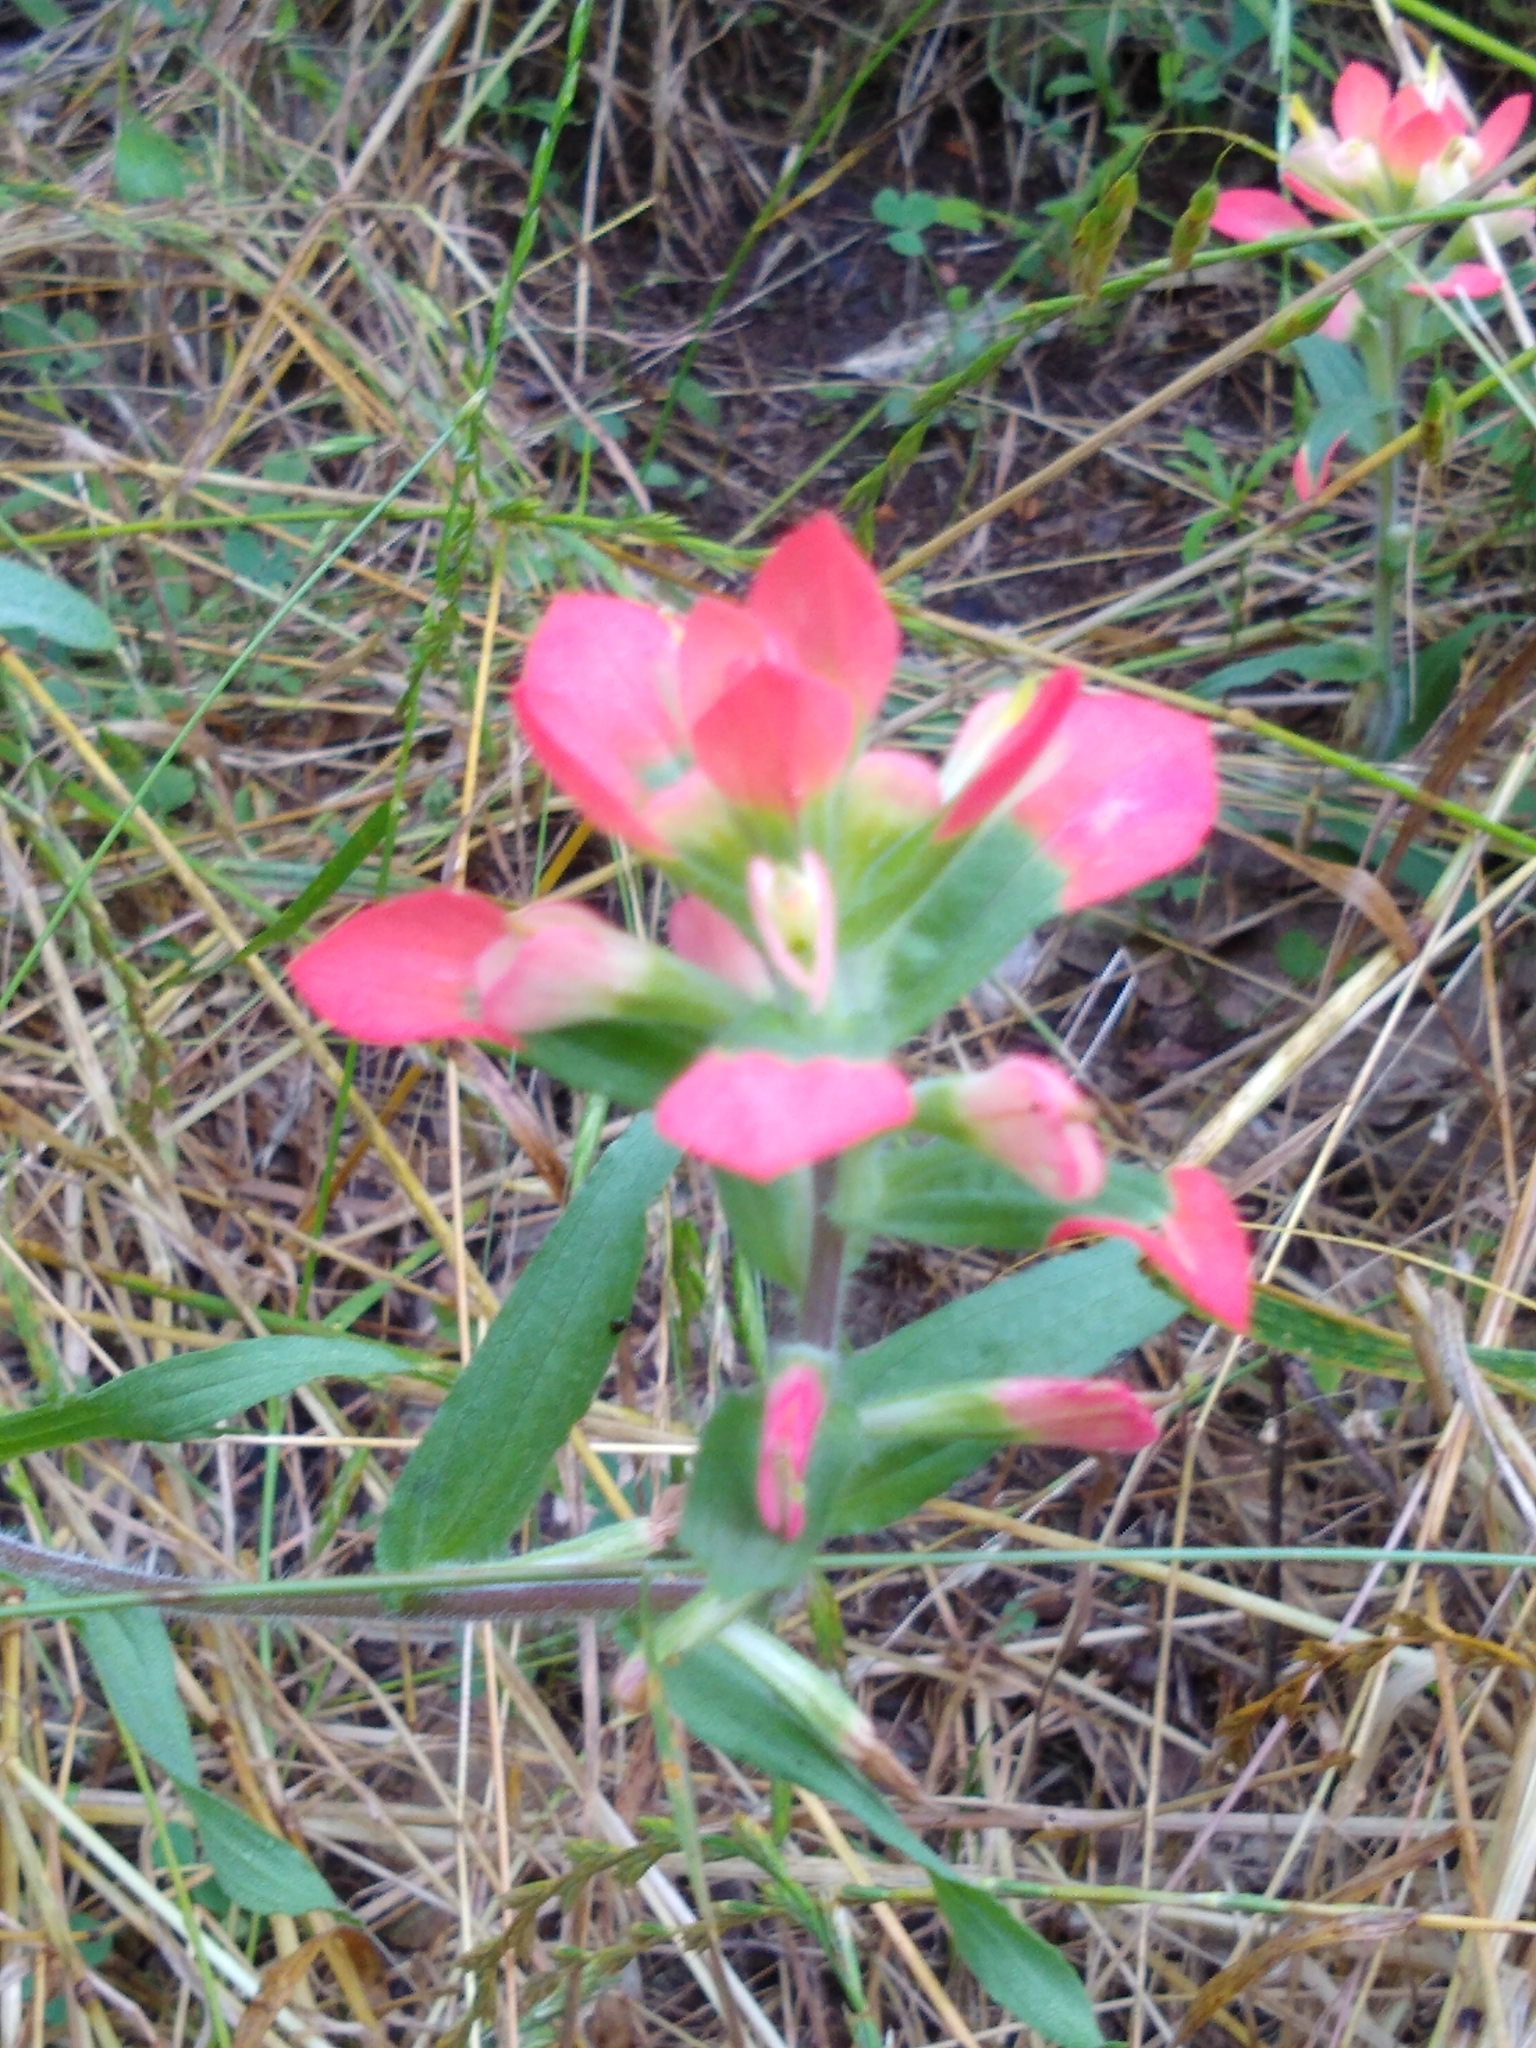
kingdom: Plantae
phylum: Tracheophyta
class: Magnoliopsida
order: Lamiales
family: Orobanchaceae
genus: Castilleja
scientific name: Castilleja indivisa
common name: Texas paintbrush
